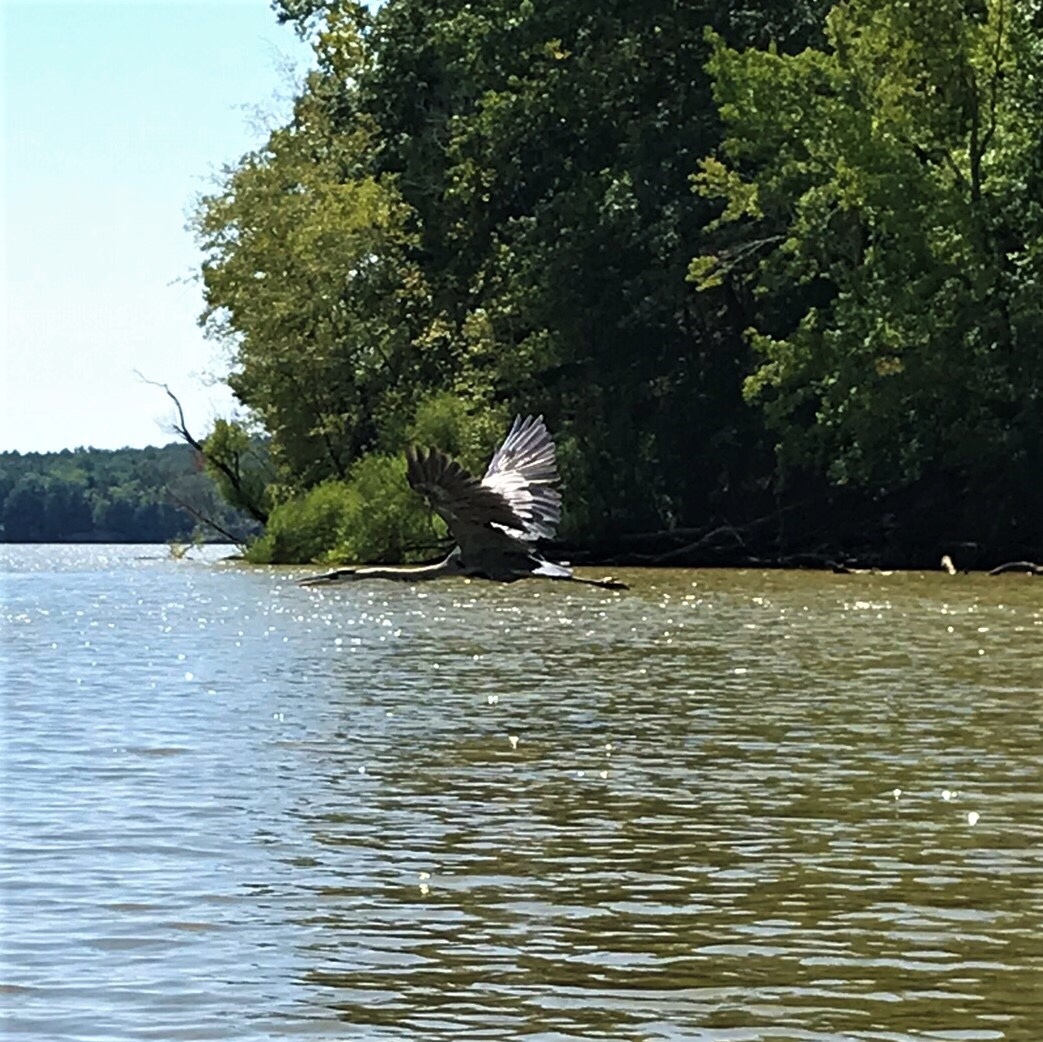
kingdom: Animalia
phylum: Chordata
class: Aves
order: Pelecaniformes
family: Ardeidae
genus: Ardea
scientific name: Ardea herodias
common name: Great blue heron
